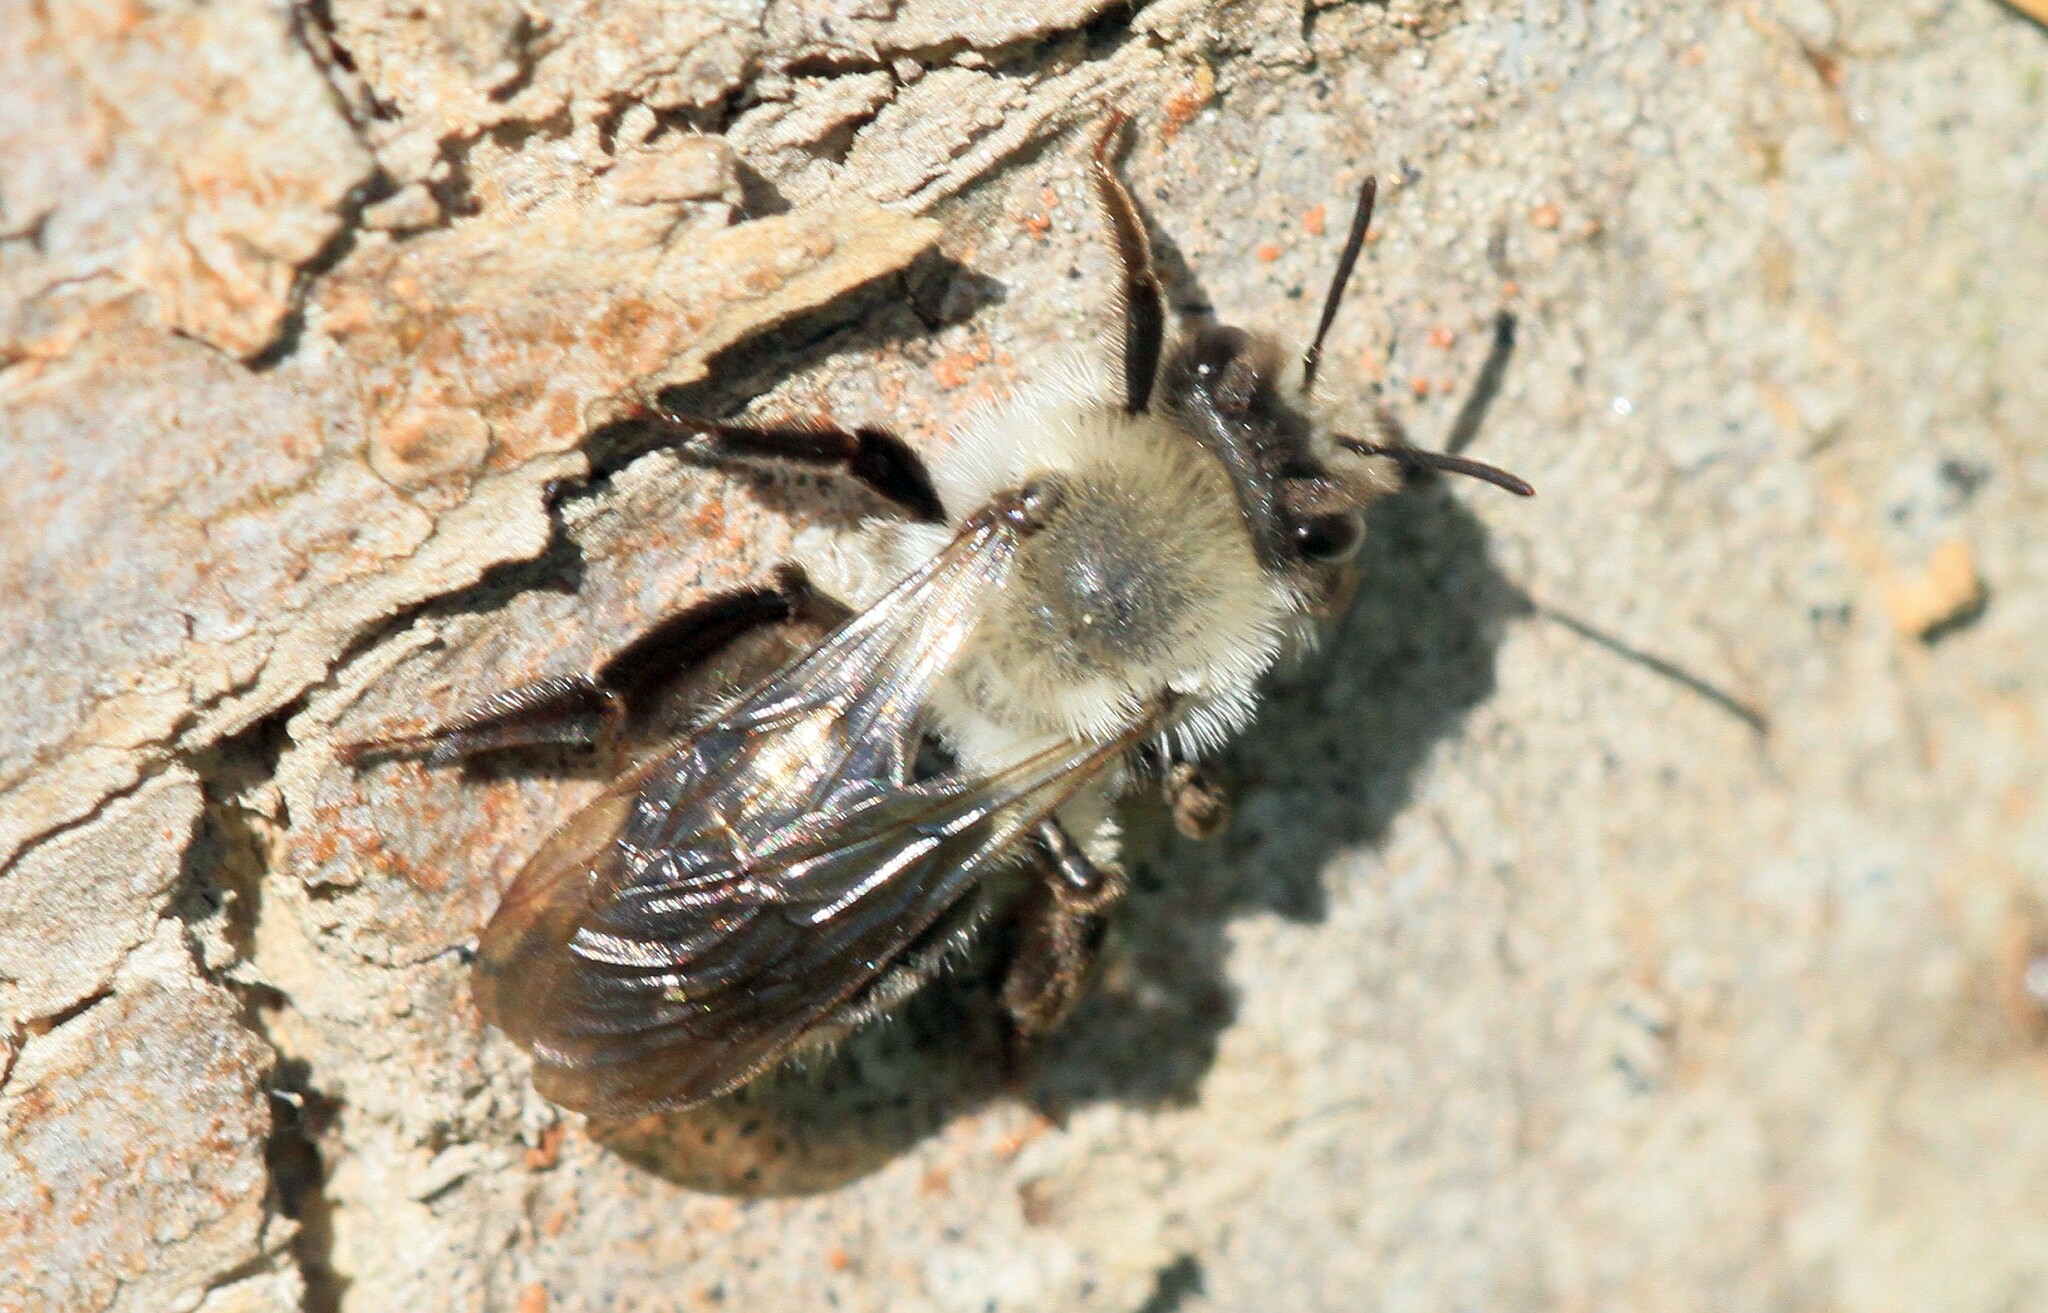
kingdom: Animalia
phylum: Arthropoda
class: Insecta
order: Hymenoptera
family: Andrenidae
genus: Andrena
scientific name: Andrena vaga
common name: Grey-backed mining bee
